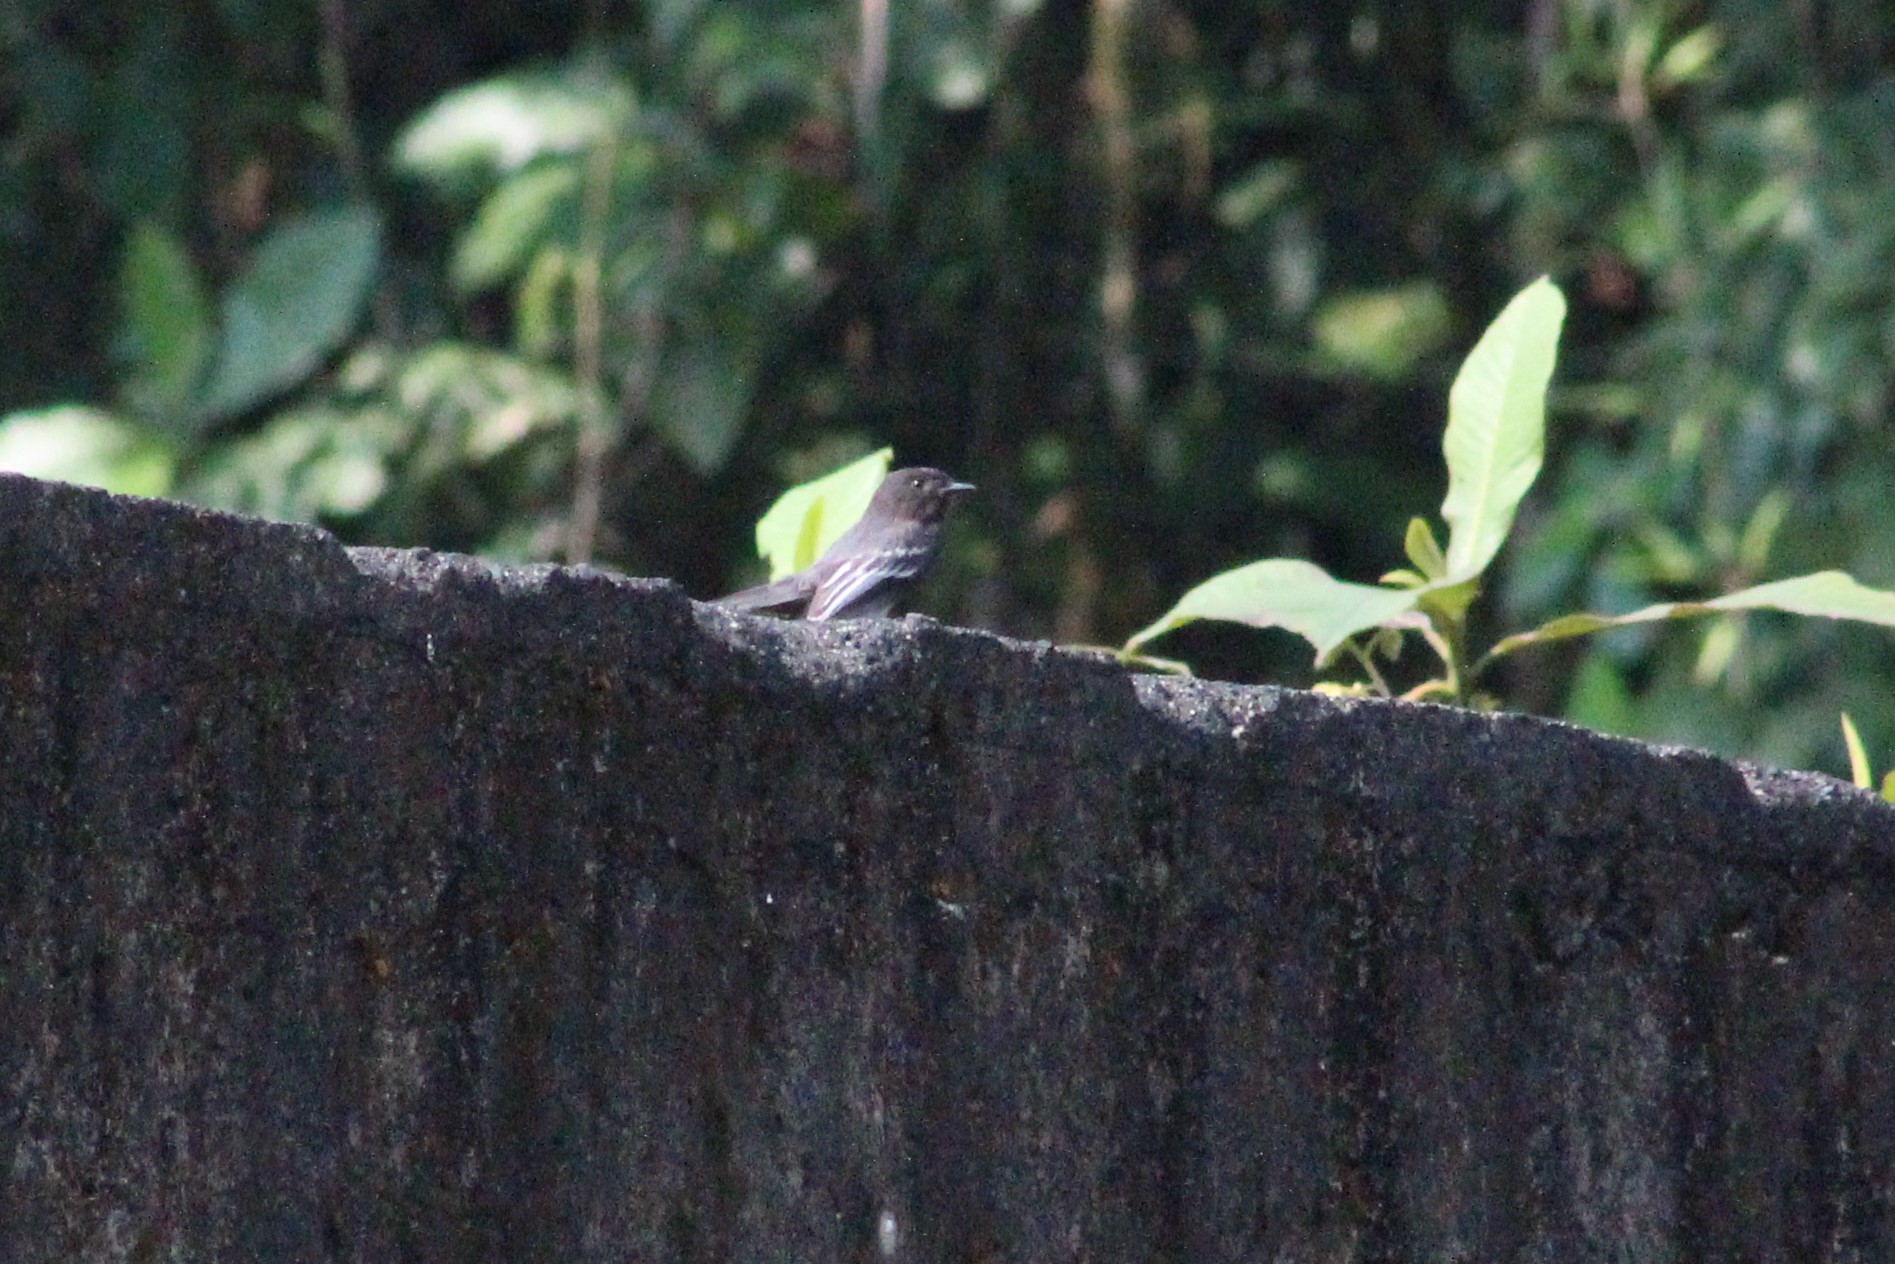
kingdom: Animalia
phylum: Chordata
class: Aves
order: Passeriformes
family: Tyrannidae
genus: Sayornis
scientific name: Sayornis nigricans
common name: Black phoebe
